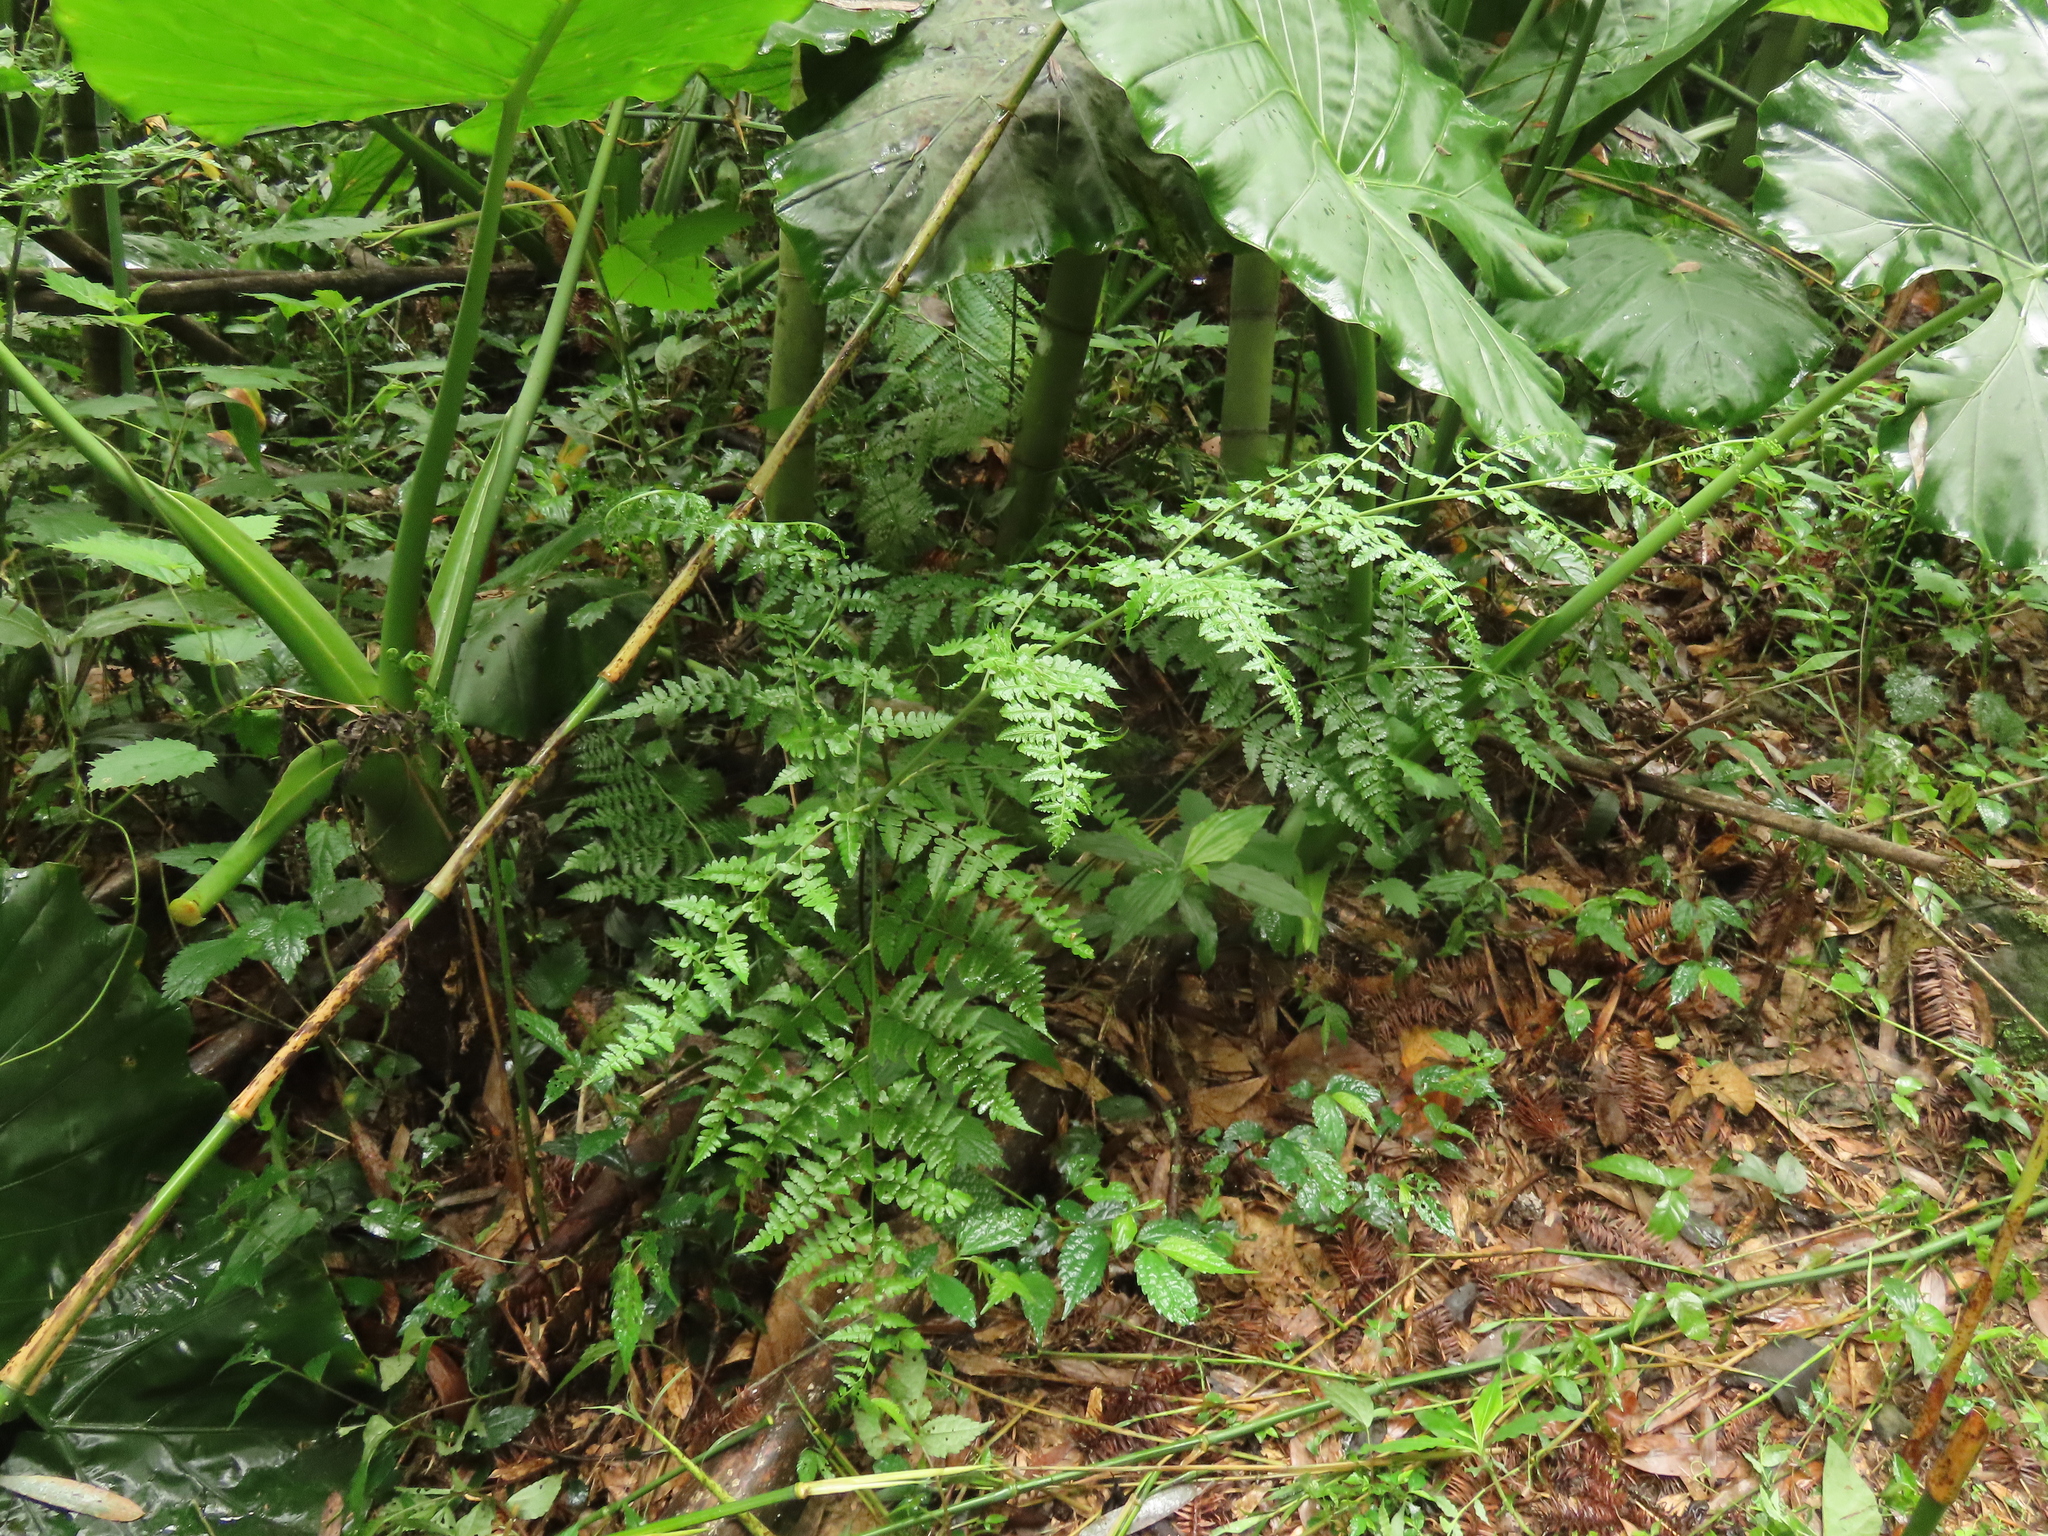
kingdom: Plantae
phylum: Tracheophyta
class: Polypodiopsida
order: Polypodiales
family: Rhachidosoraceae
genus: Rhachidosorus
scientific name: Rhachidosorus pulcher
